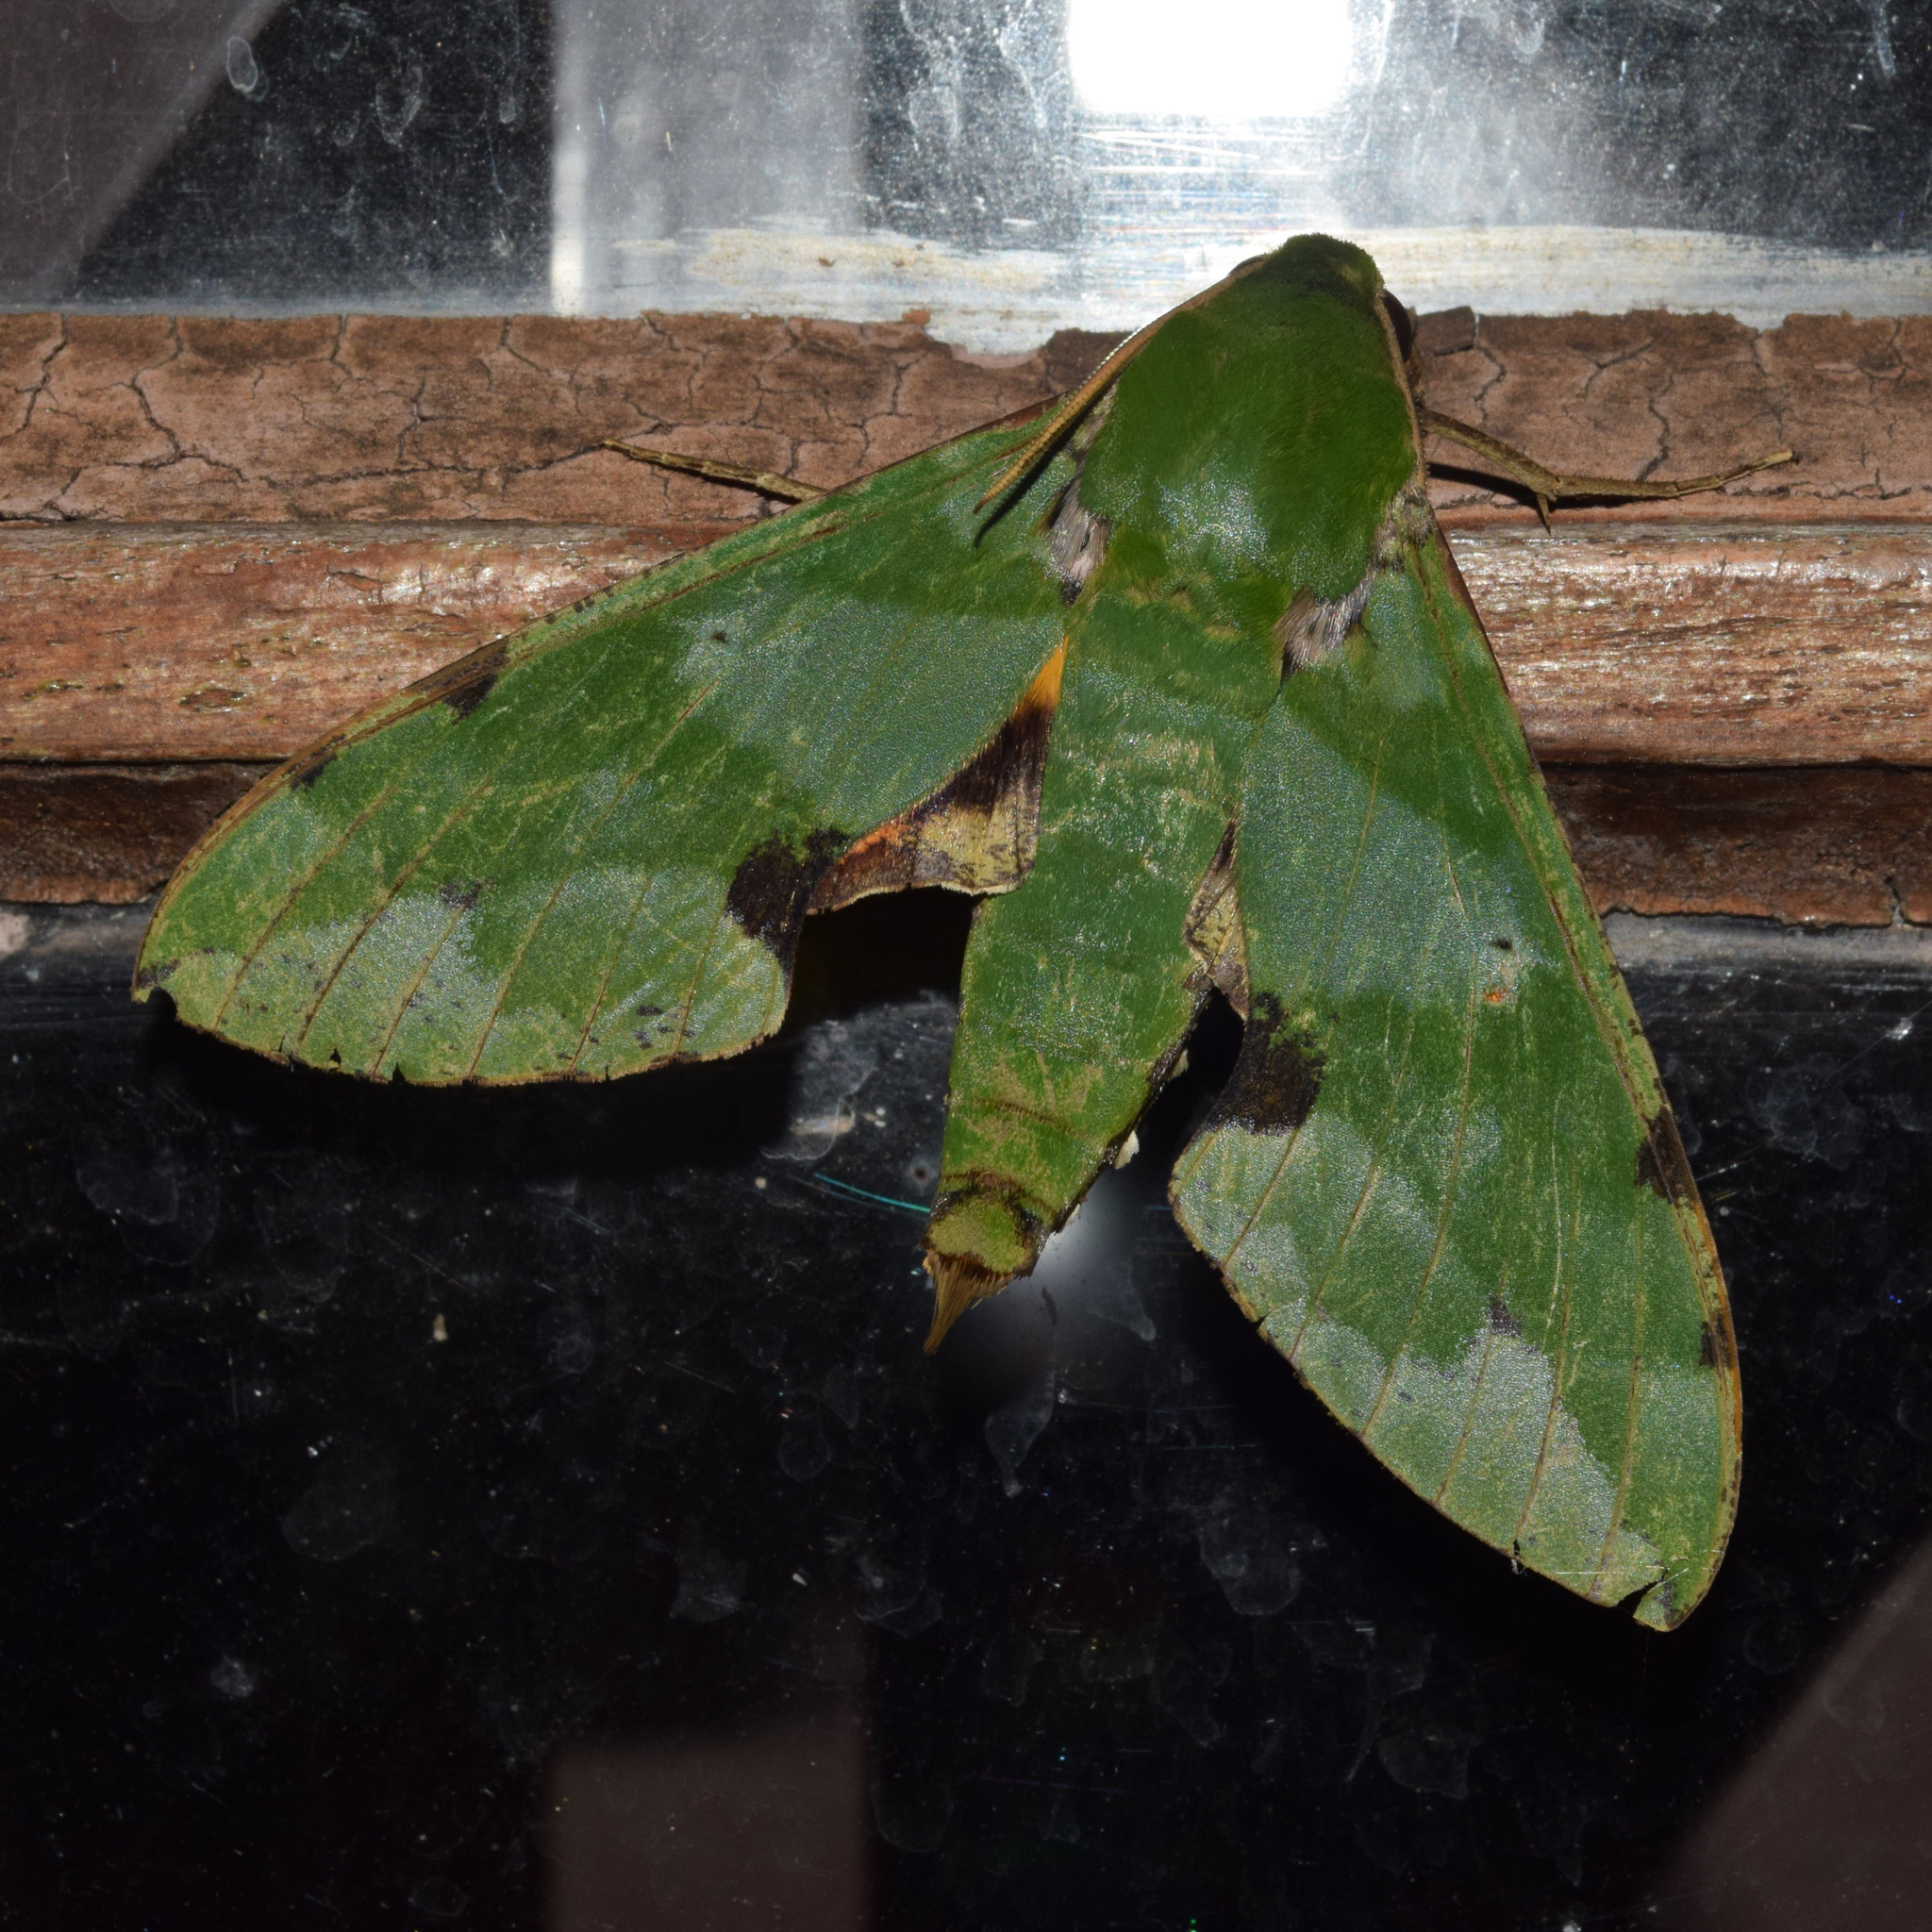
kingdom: Animalia
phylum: Arthropoda
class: Insecta
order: Lepidoptera
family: Sphingidae
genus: Euchloron
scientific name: Euchloron megaera
